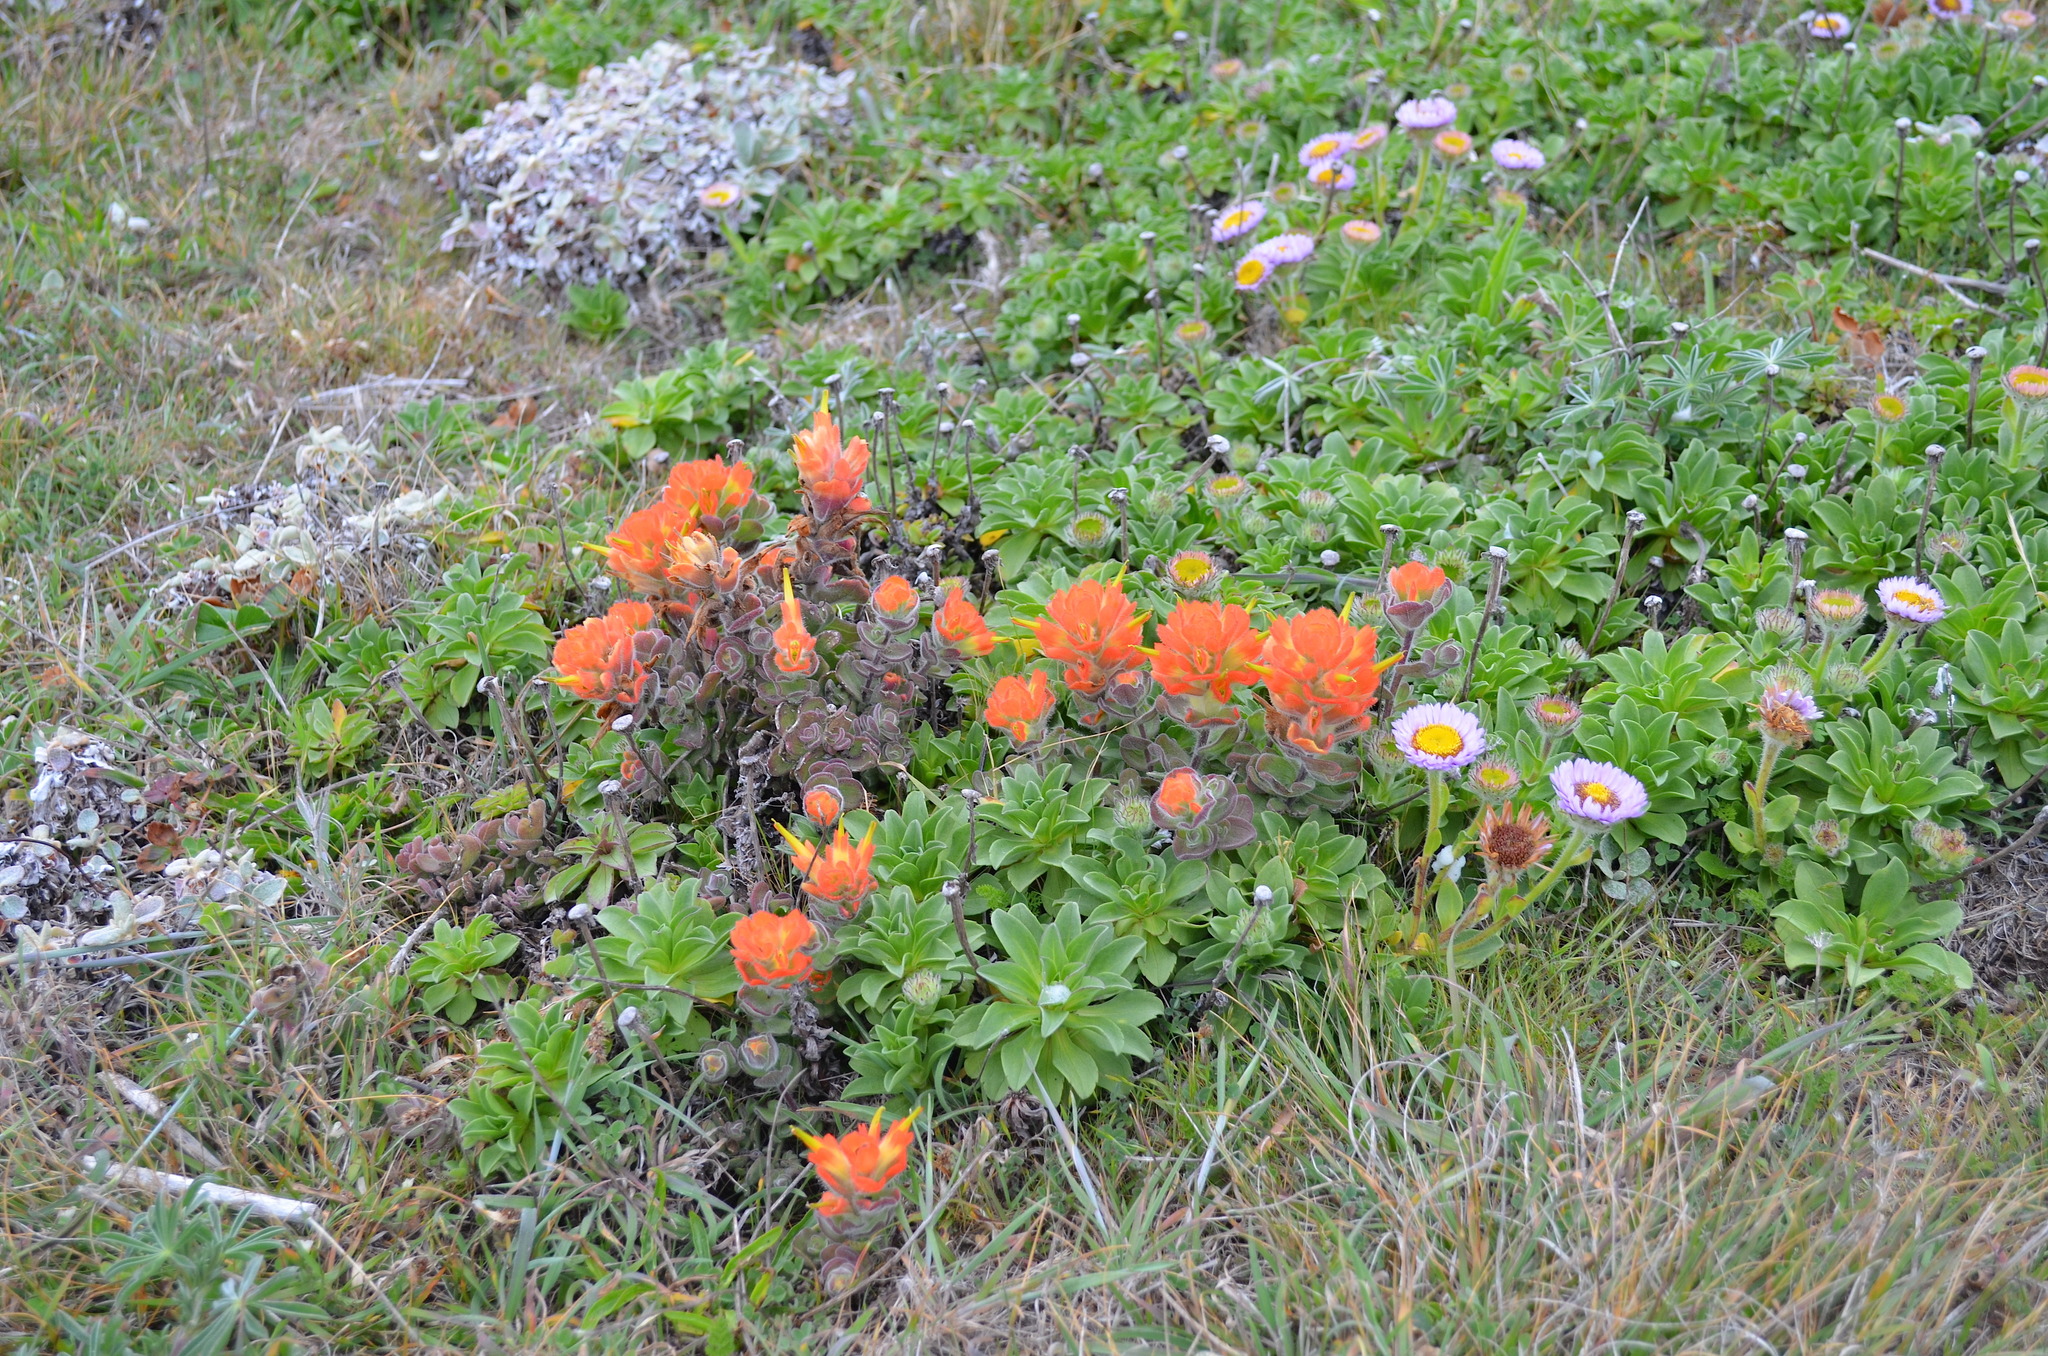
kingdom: Plantae
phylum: Tracheophyta
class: Magnoliopsida
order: Lamiales
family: Orobanchaceae
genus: Castilleja
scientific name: Castilleja mendocinensis
